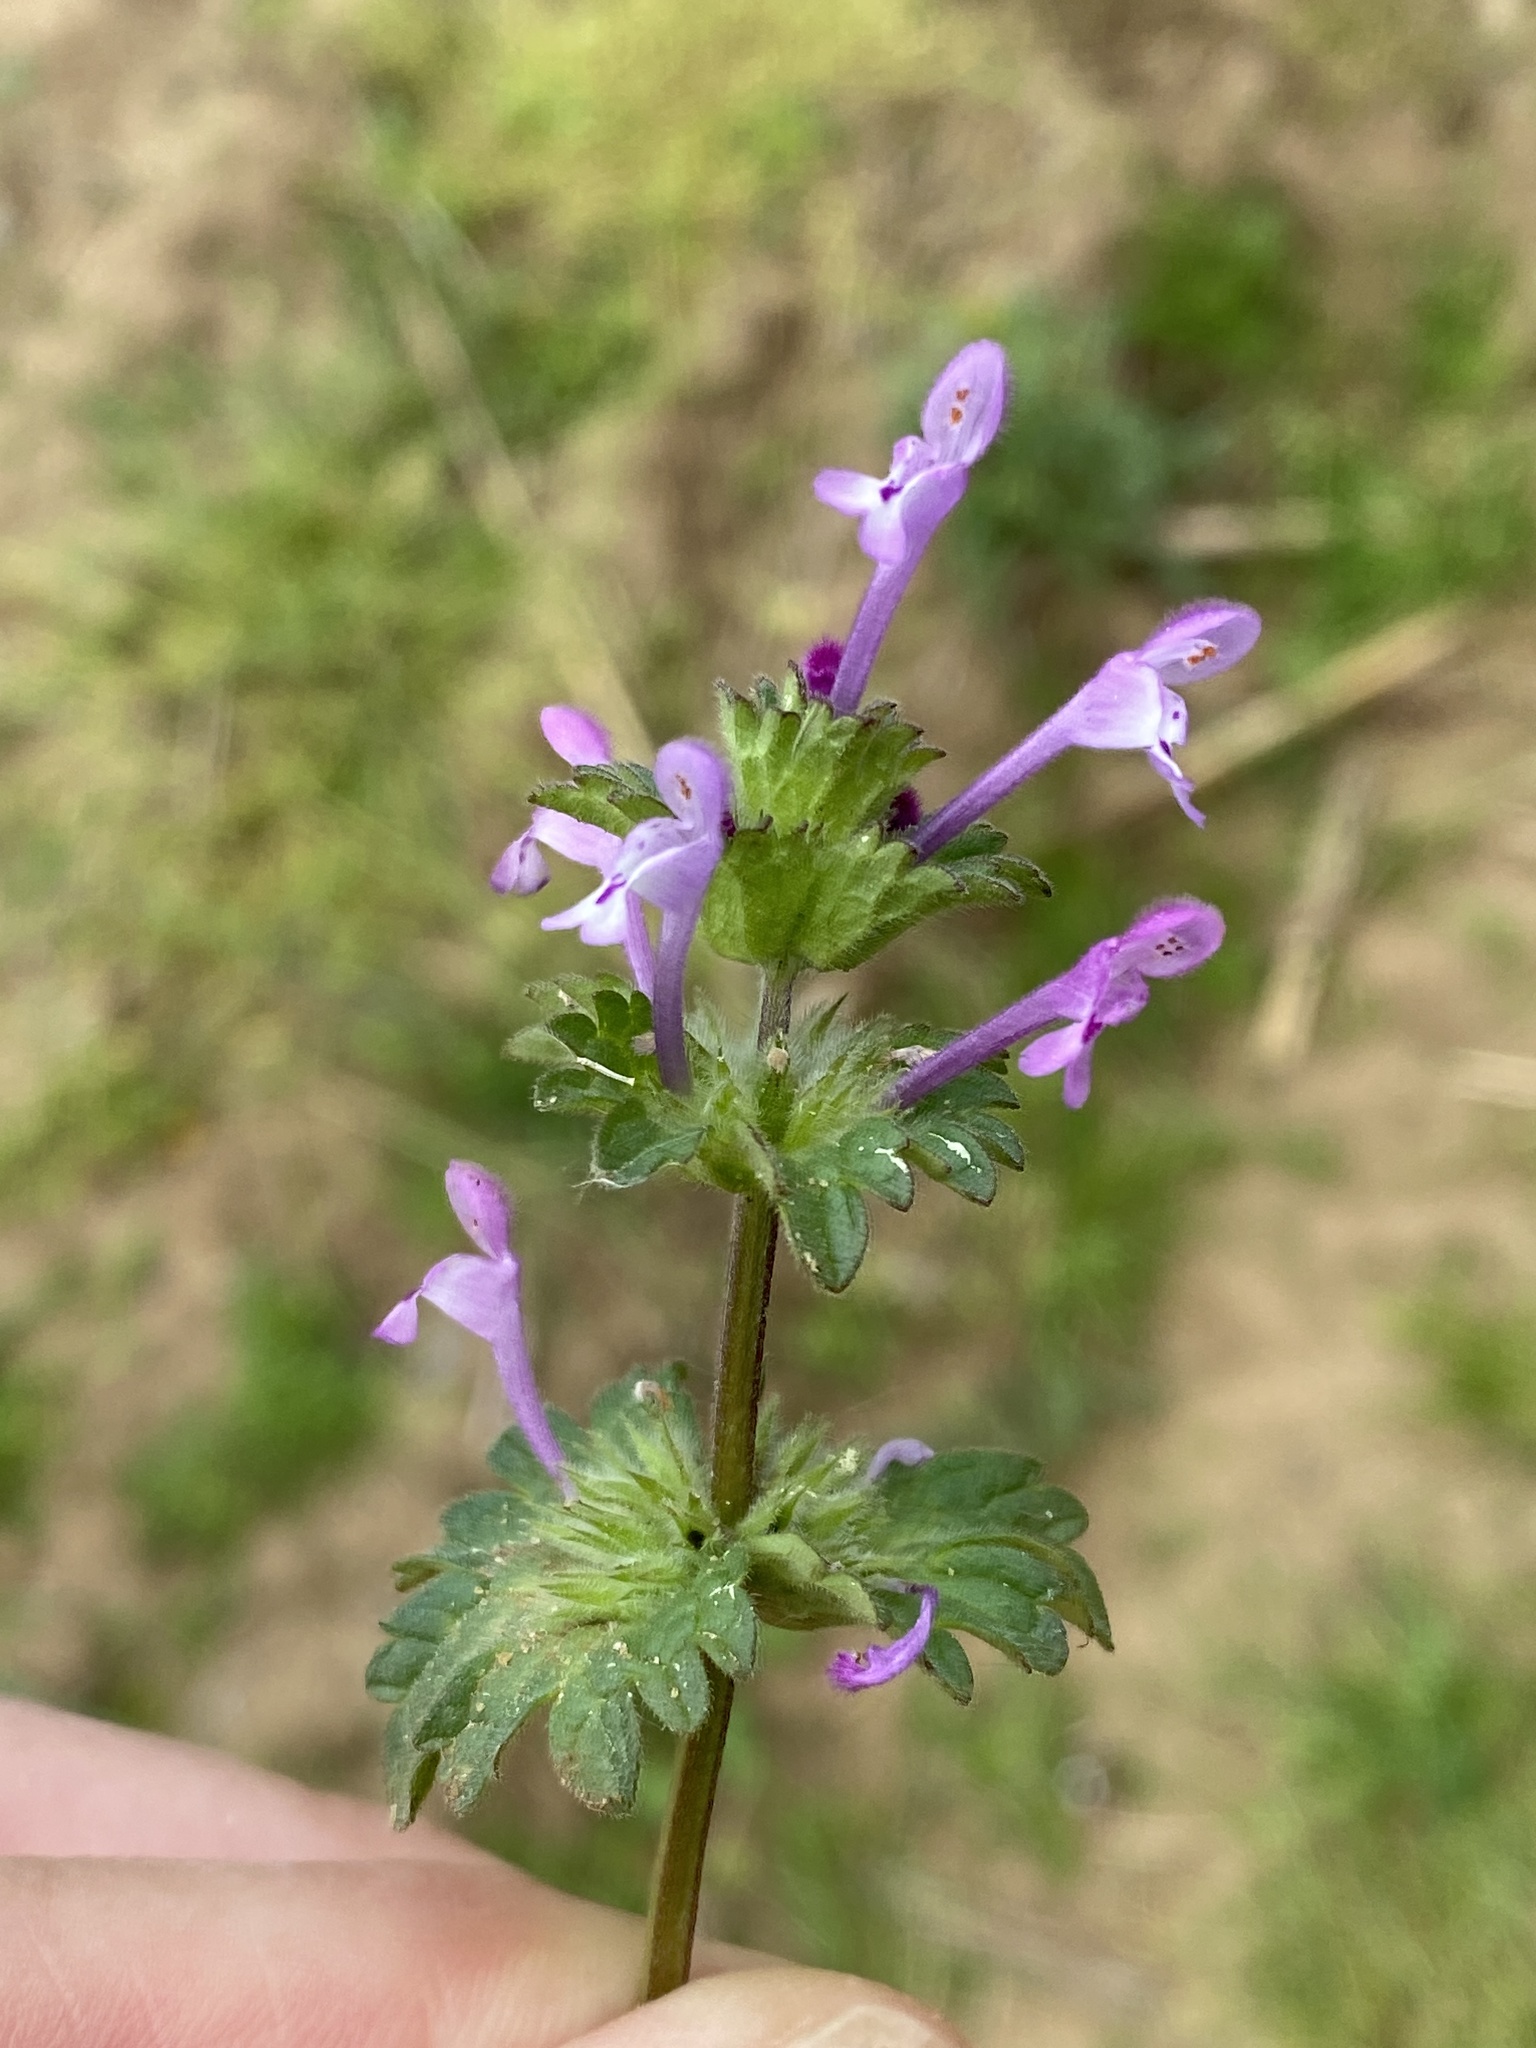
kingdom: Plantae
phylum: Tracheophyta
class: Magnoliopsida
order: Lamiales
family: Lamiaceae
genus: Lamium
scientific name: Lamium amplexicaule
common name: Henbit dead-nettle
